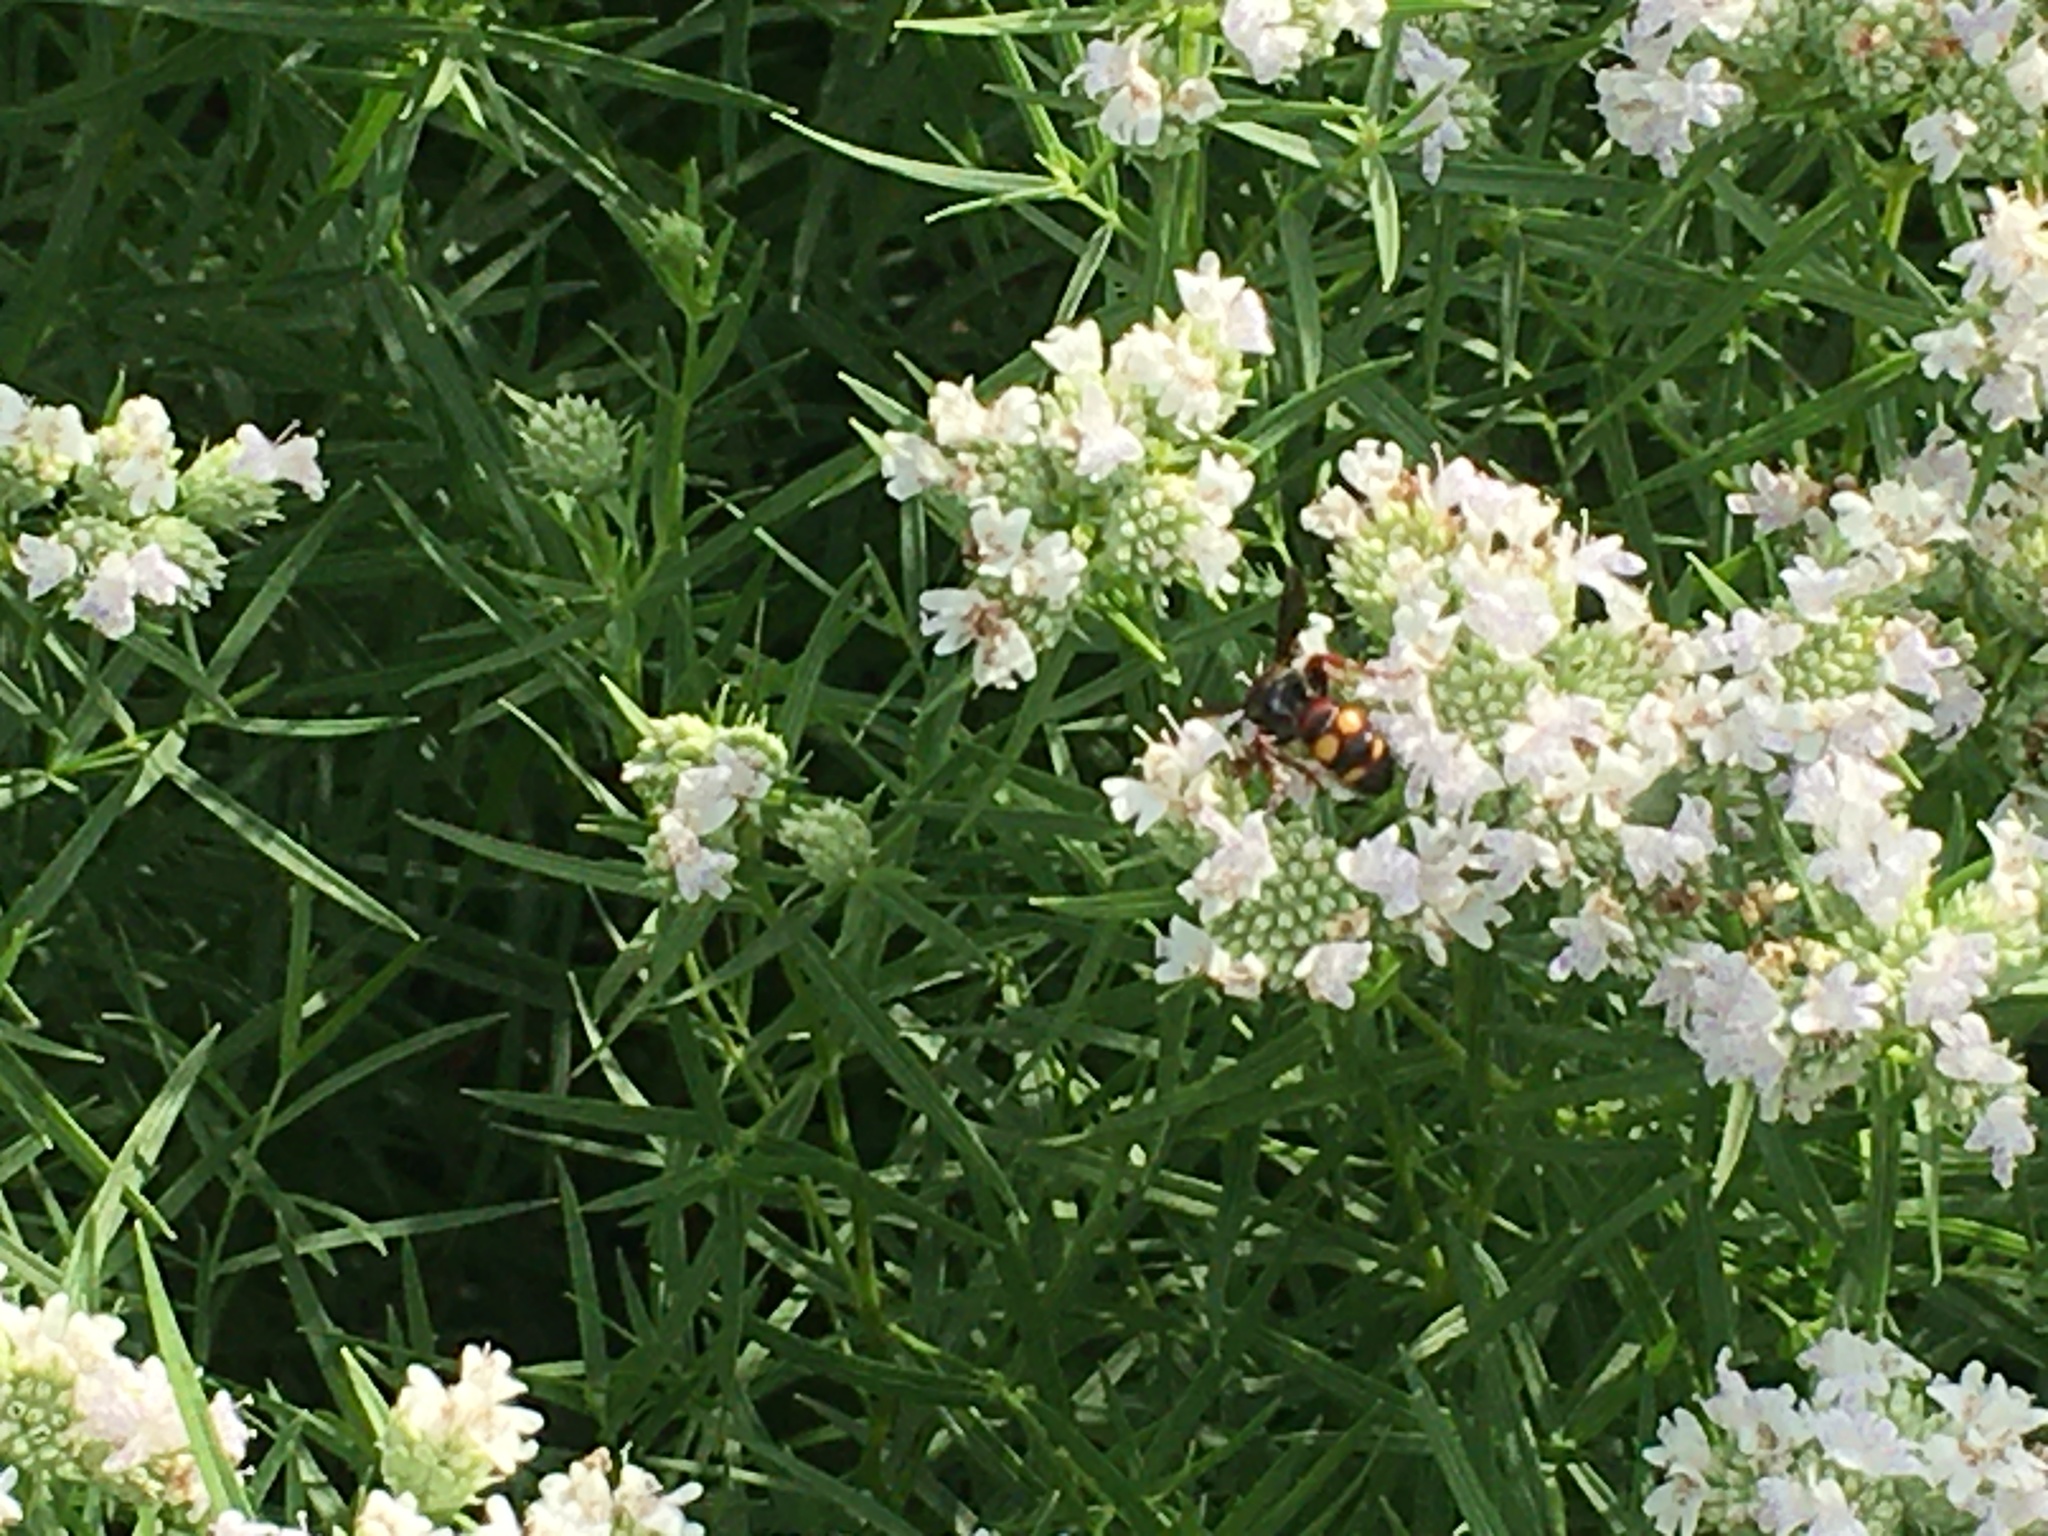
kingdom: Animalia
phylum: Arthropoda
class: Insecta
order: Hymenoptera
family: Scoliidae
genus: Scolia
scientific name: Scolia nobilitata
